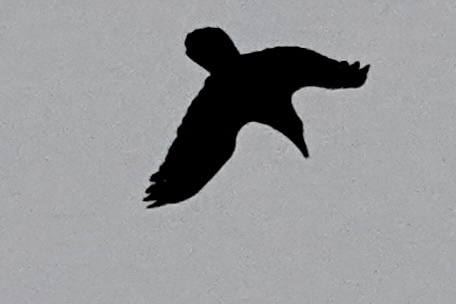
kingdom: Animalia
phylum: Chordata
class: Aves
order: Passeriformes
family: Corvidae
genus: Corvus
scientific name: Corvus corax
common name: Common raven
